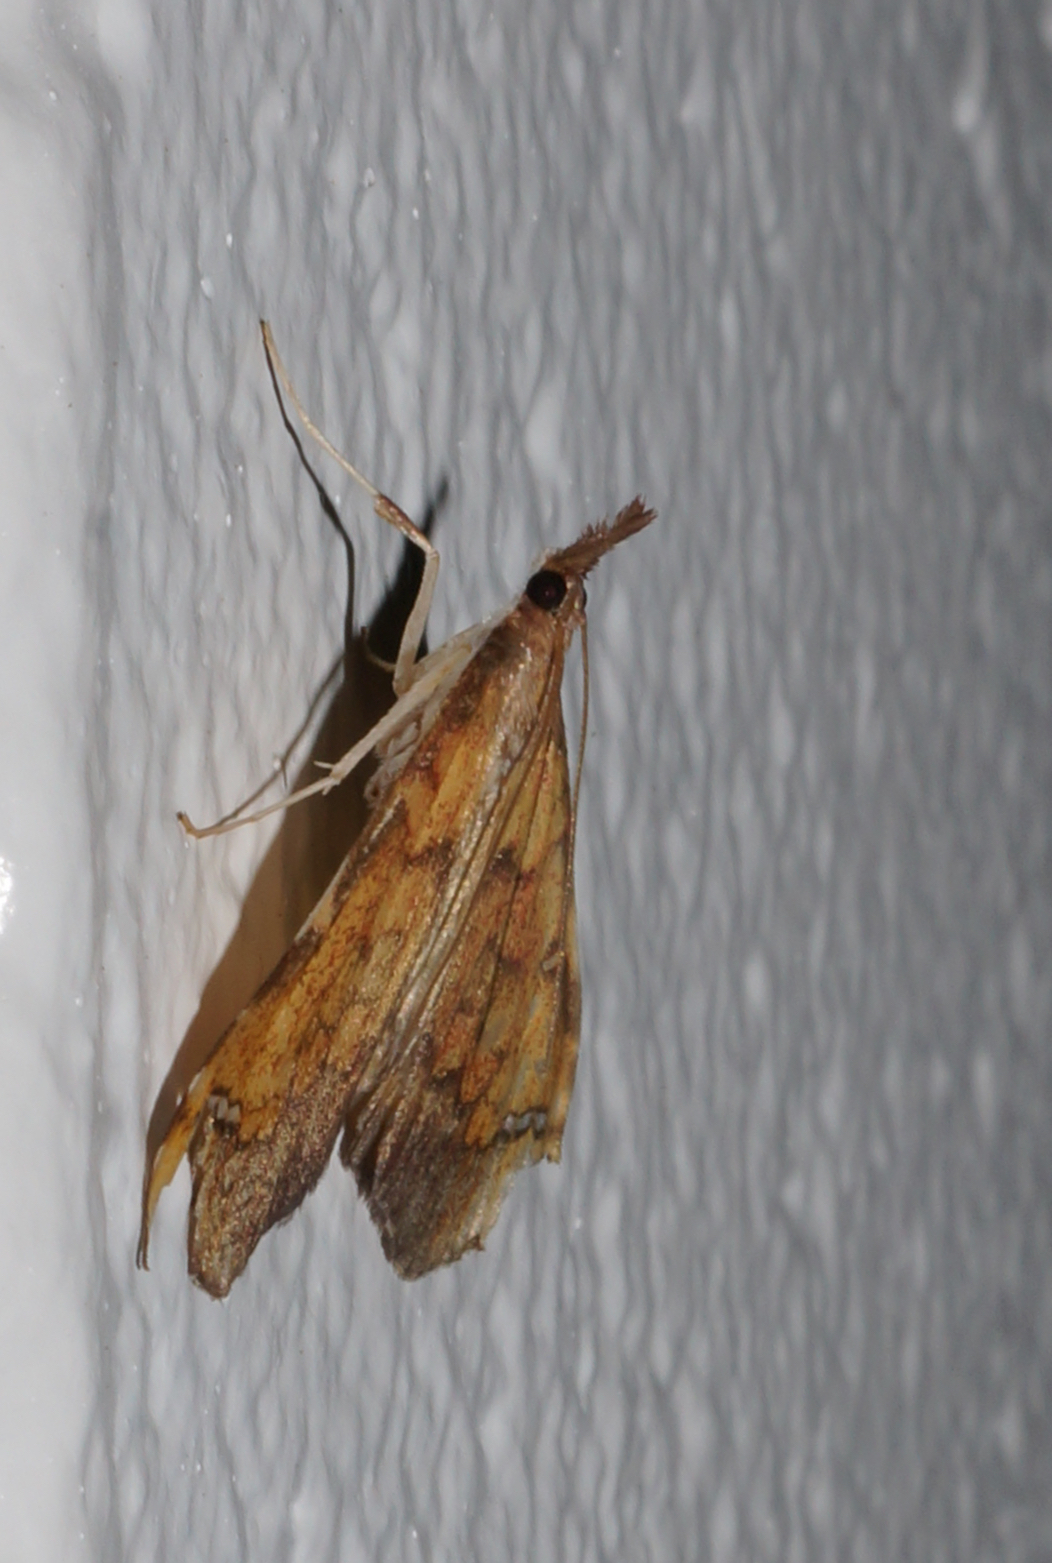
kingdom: Animalia
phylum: Arthropoda
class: Insecta
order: Lepidoptera
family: Crambidae
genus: Deana
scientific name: Deana hybreasalis
